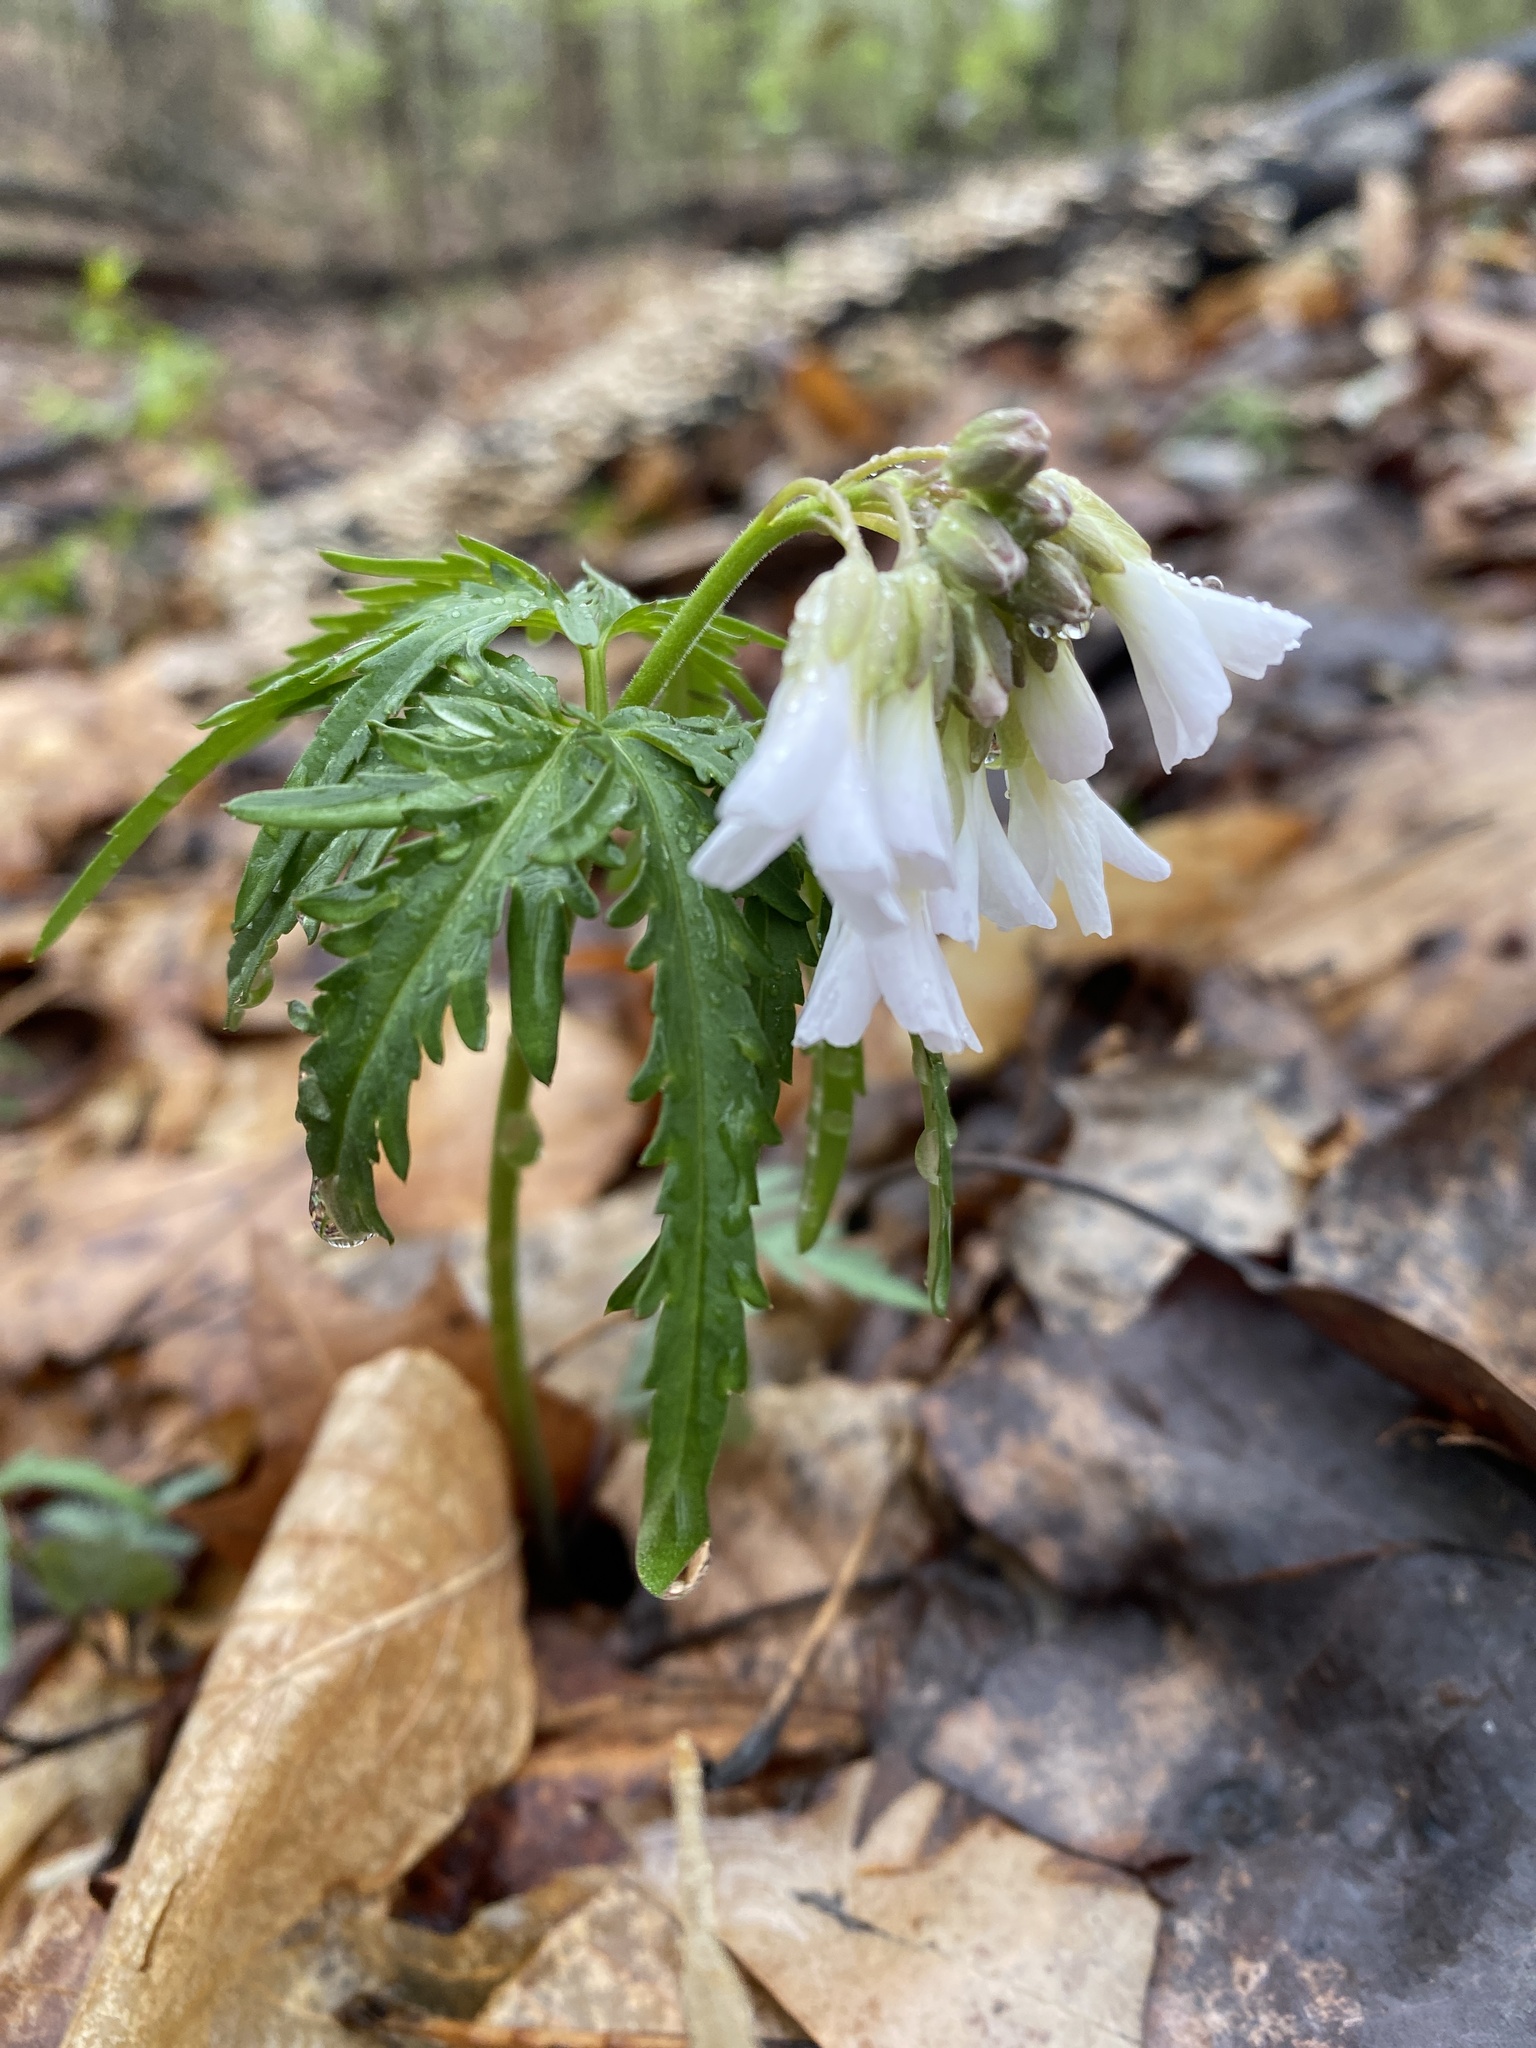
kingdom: Plantae
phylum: Tracheophyta
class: Magnoliopsida
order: Brassicales
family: Brassicaceae
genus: Cardamine
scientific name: Cardamine concatenata
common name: Cut-leaf toothcup
